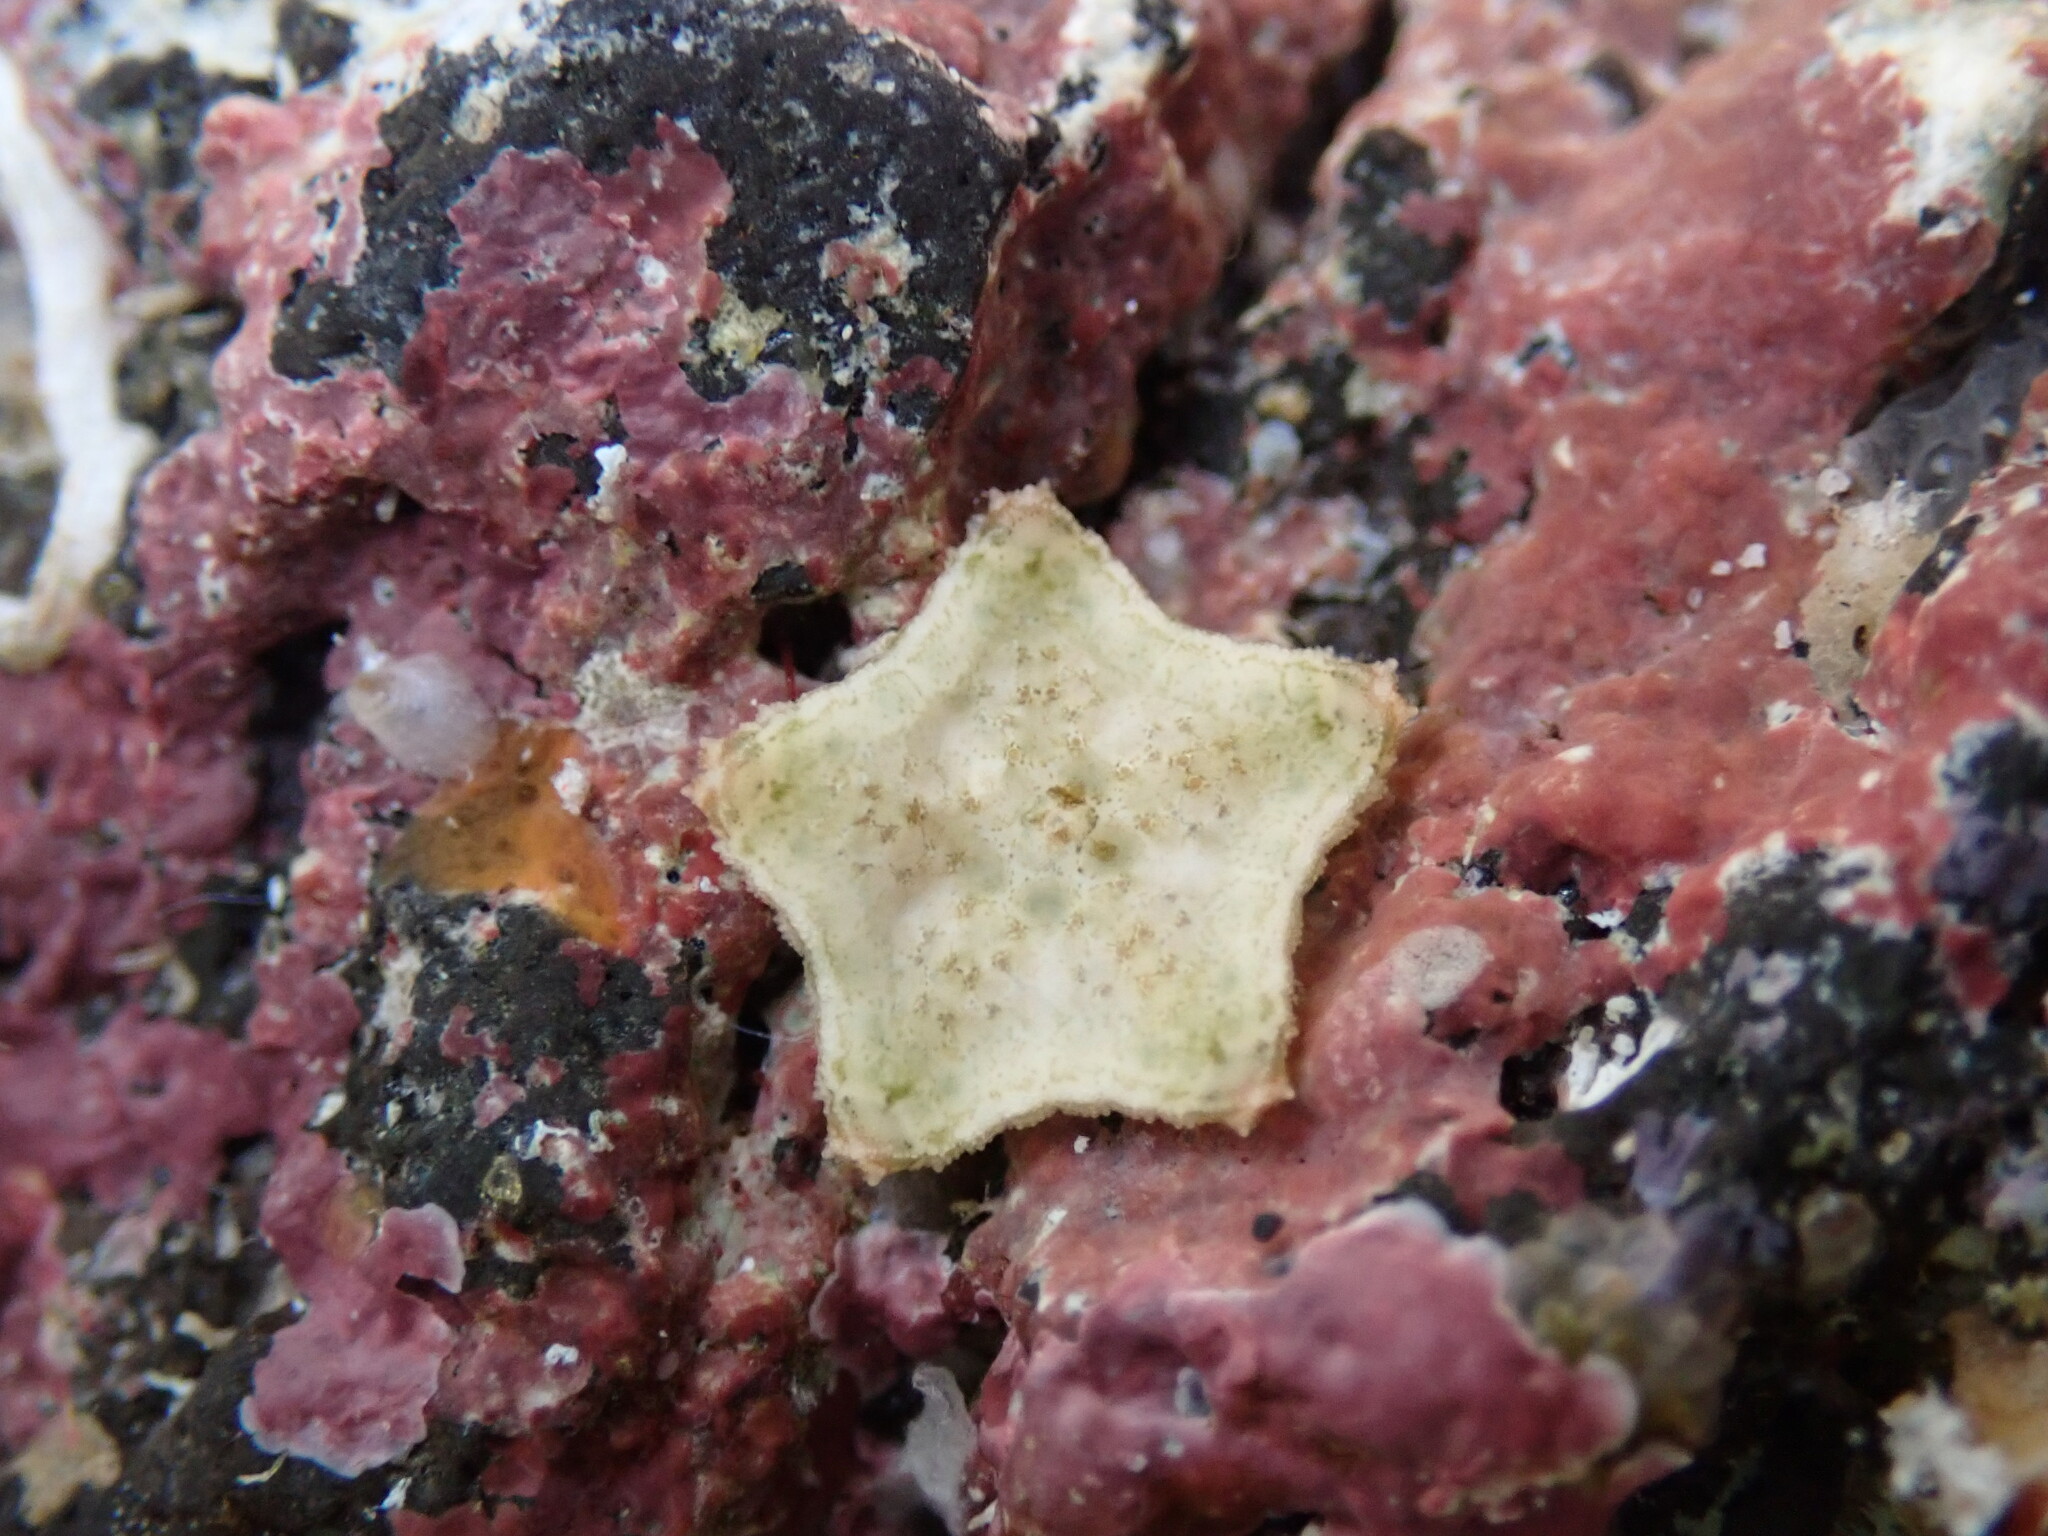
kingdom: Animalia
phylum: Echinodermata
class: Asteroidea
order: Valvatida
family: Oreasteridae
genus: Culcita
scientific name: Culcita novaeguineae
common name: Cushion star
